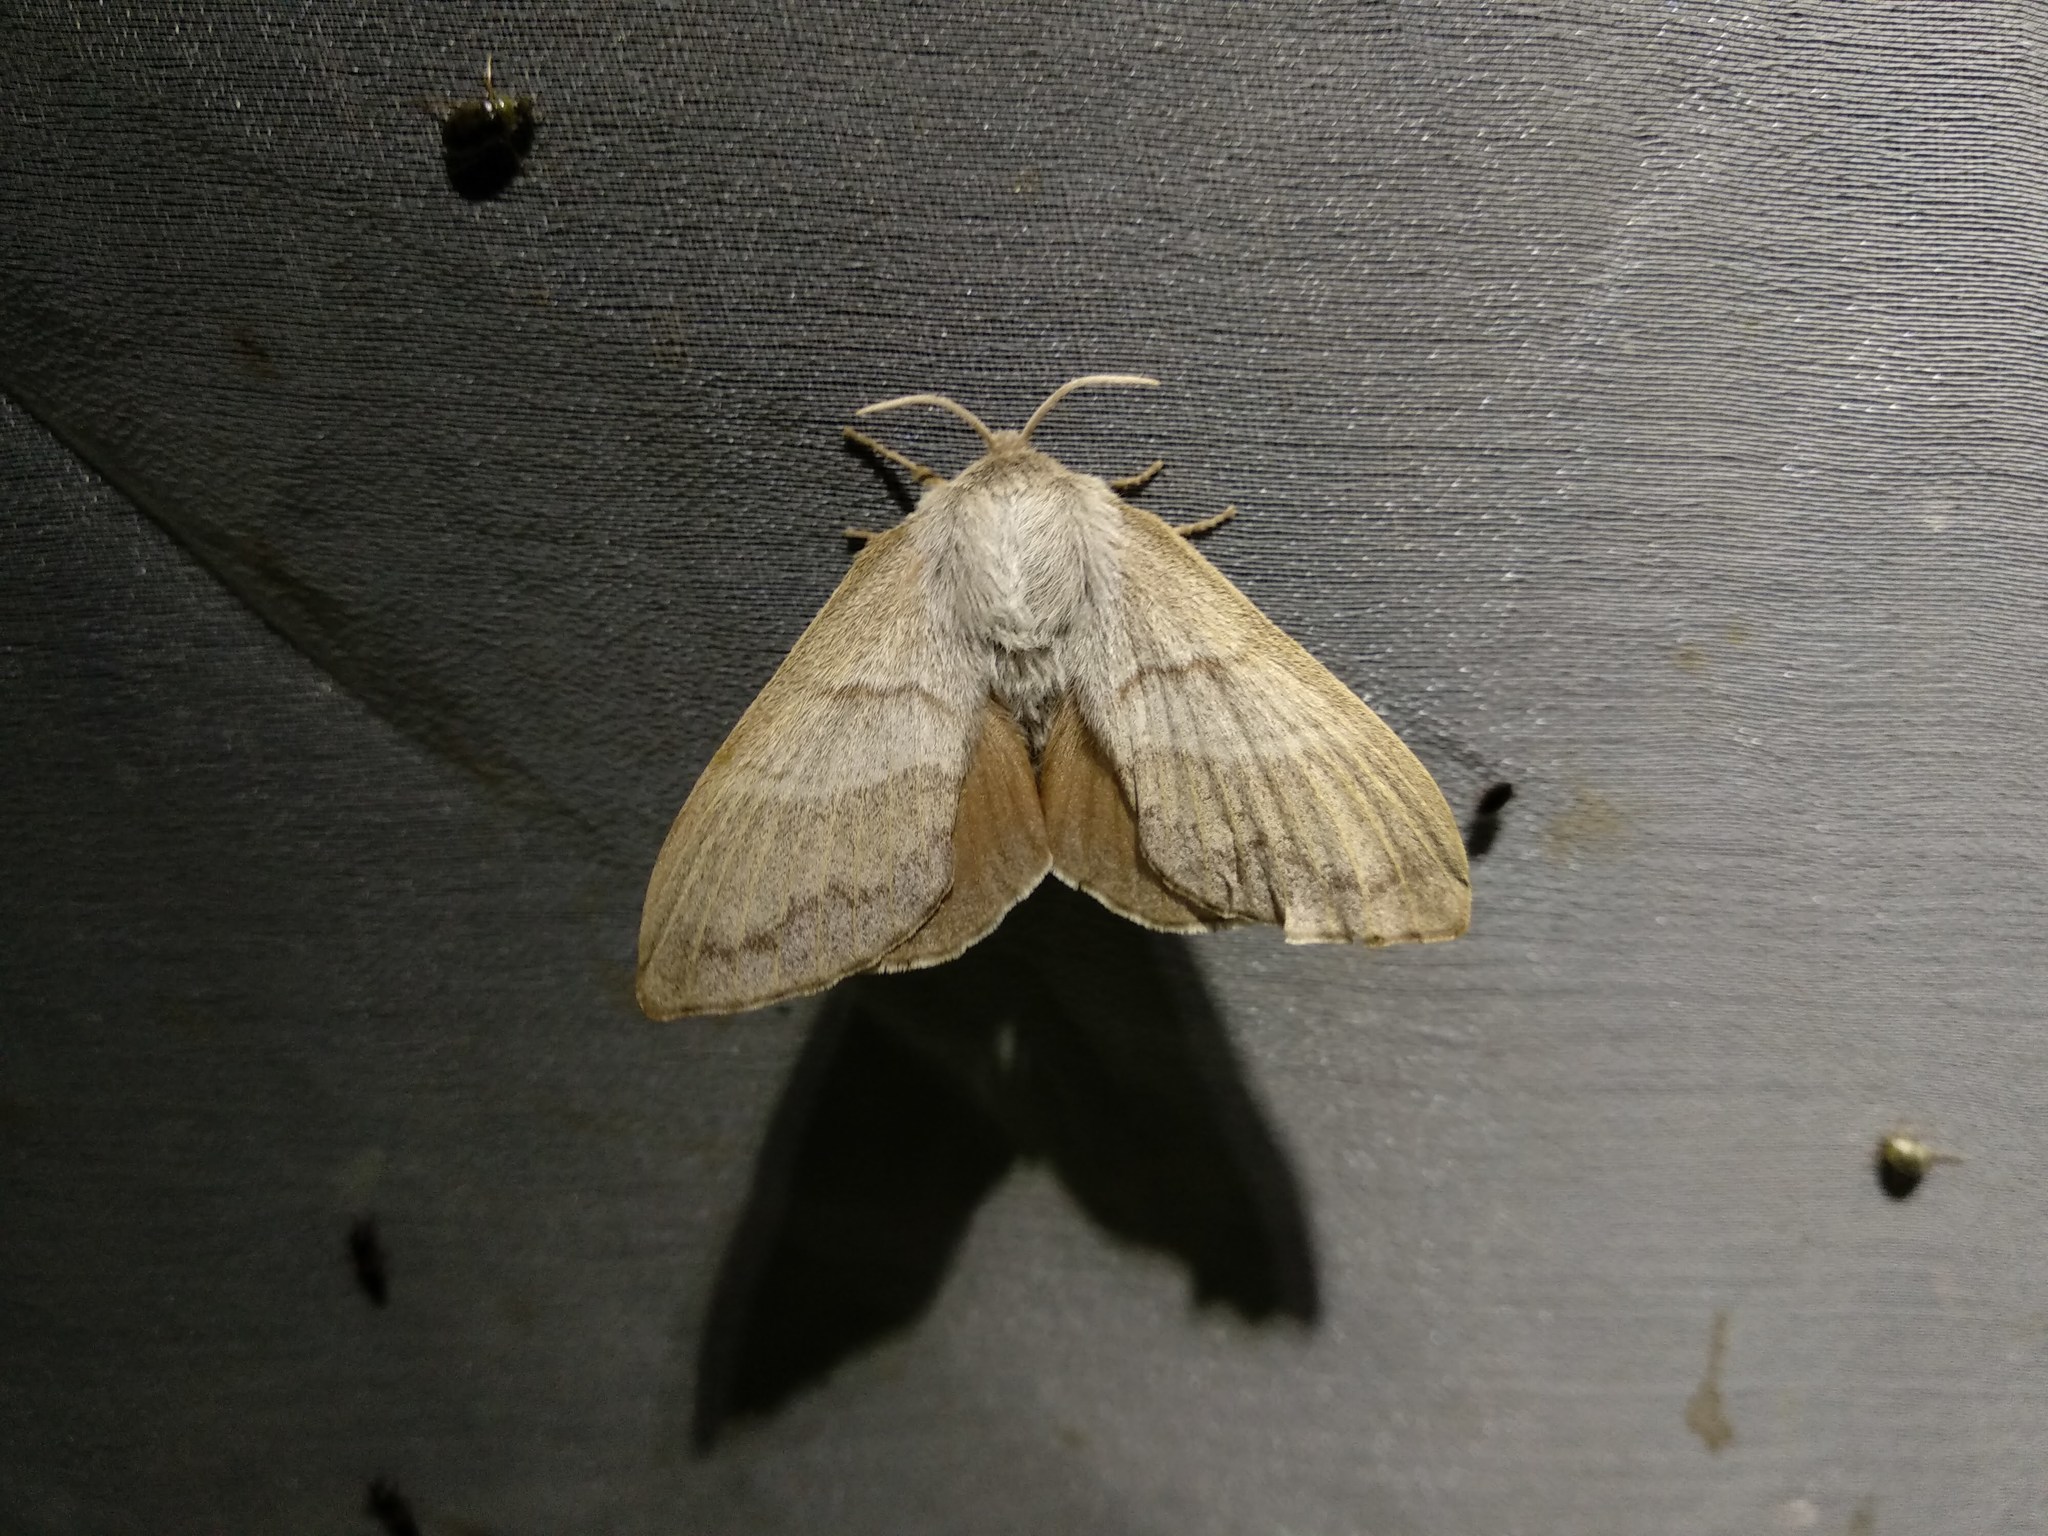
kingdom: Animalia
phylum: Arthropoda
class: Insecta
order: Lepidoptera
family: Lasiocampidae
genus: Macrothylacia
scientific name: Macrothylacia rubi
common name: Fox moth
